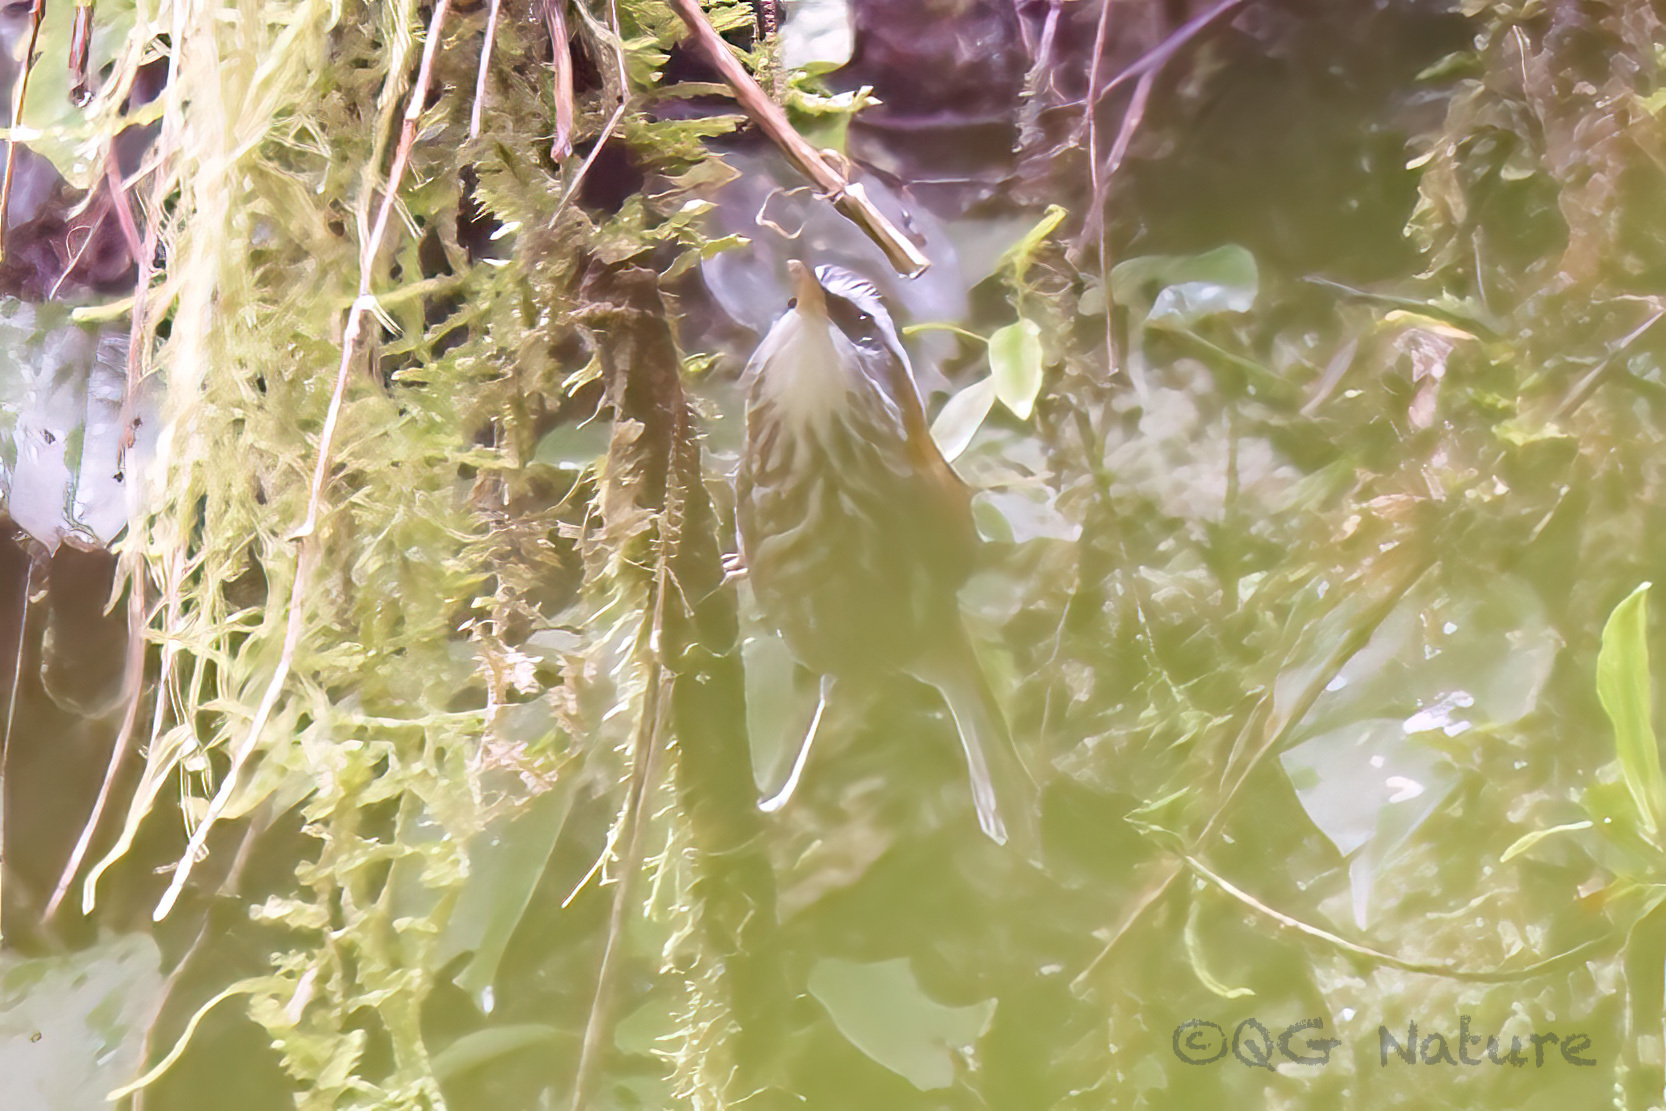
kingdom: Animalia
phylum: Chordata
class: Aves
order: Passeriformes
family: Timaliidae
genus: Pomatorhinus
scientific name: Pomatorhinus ruficollis
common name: Streak-breasted scimitar babbler
